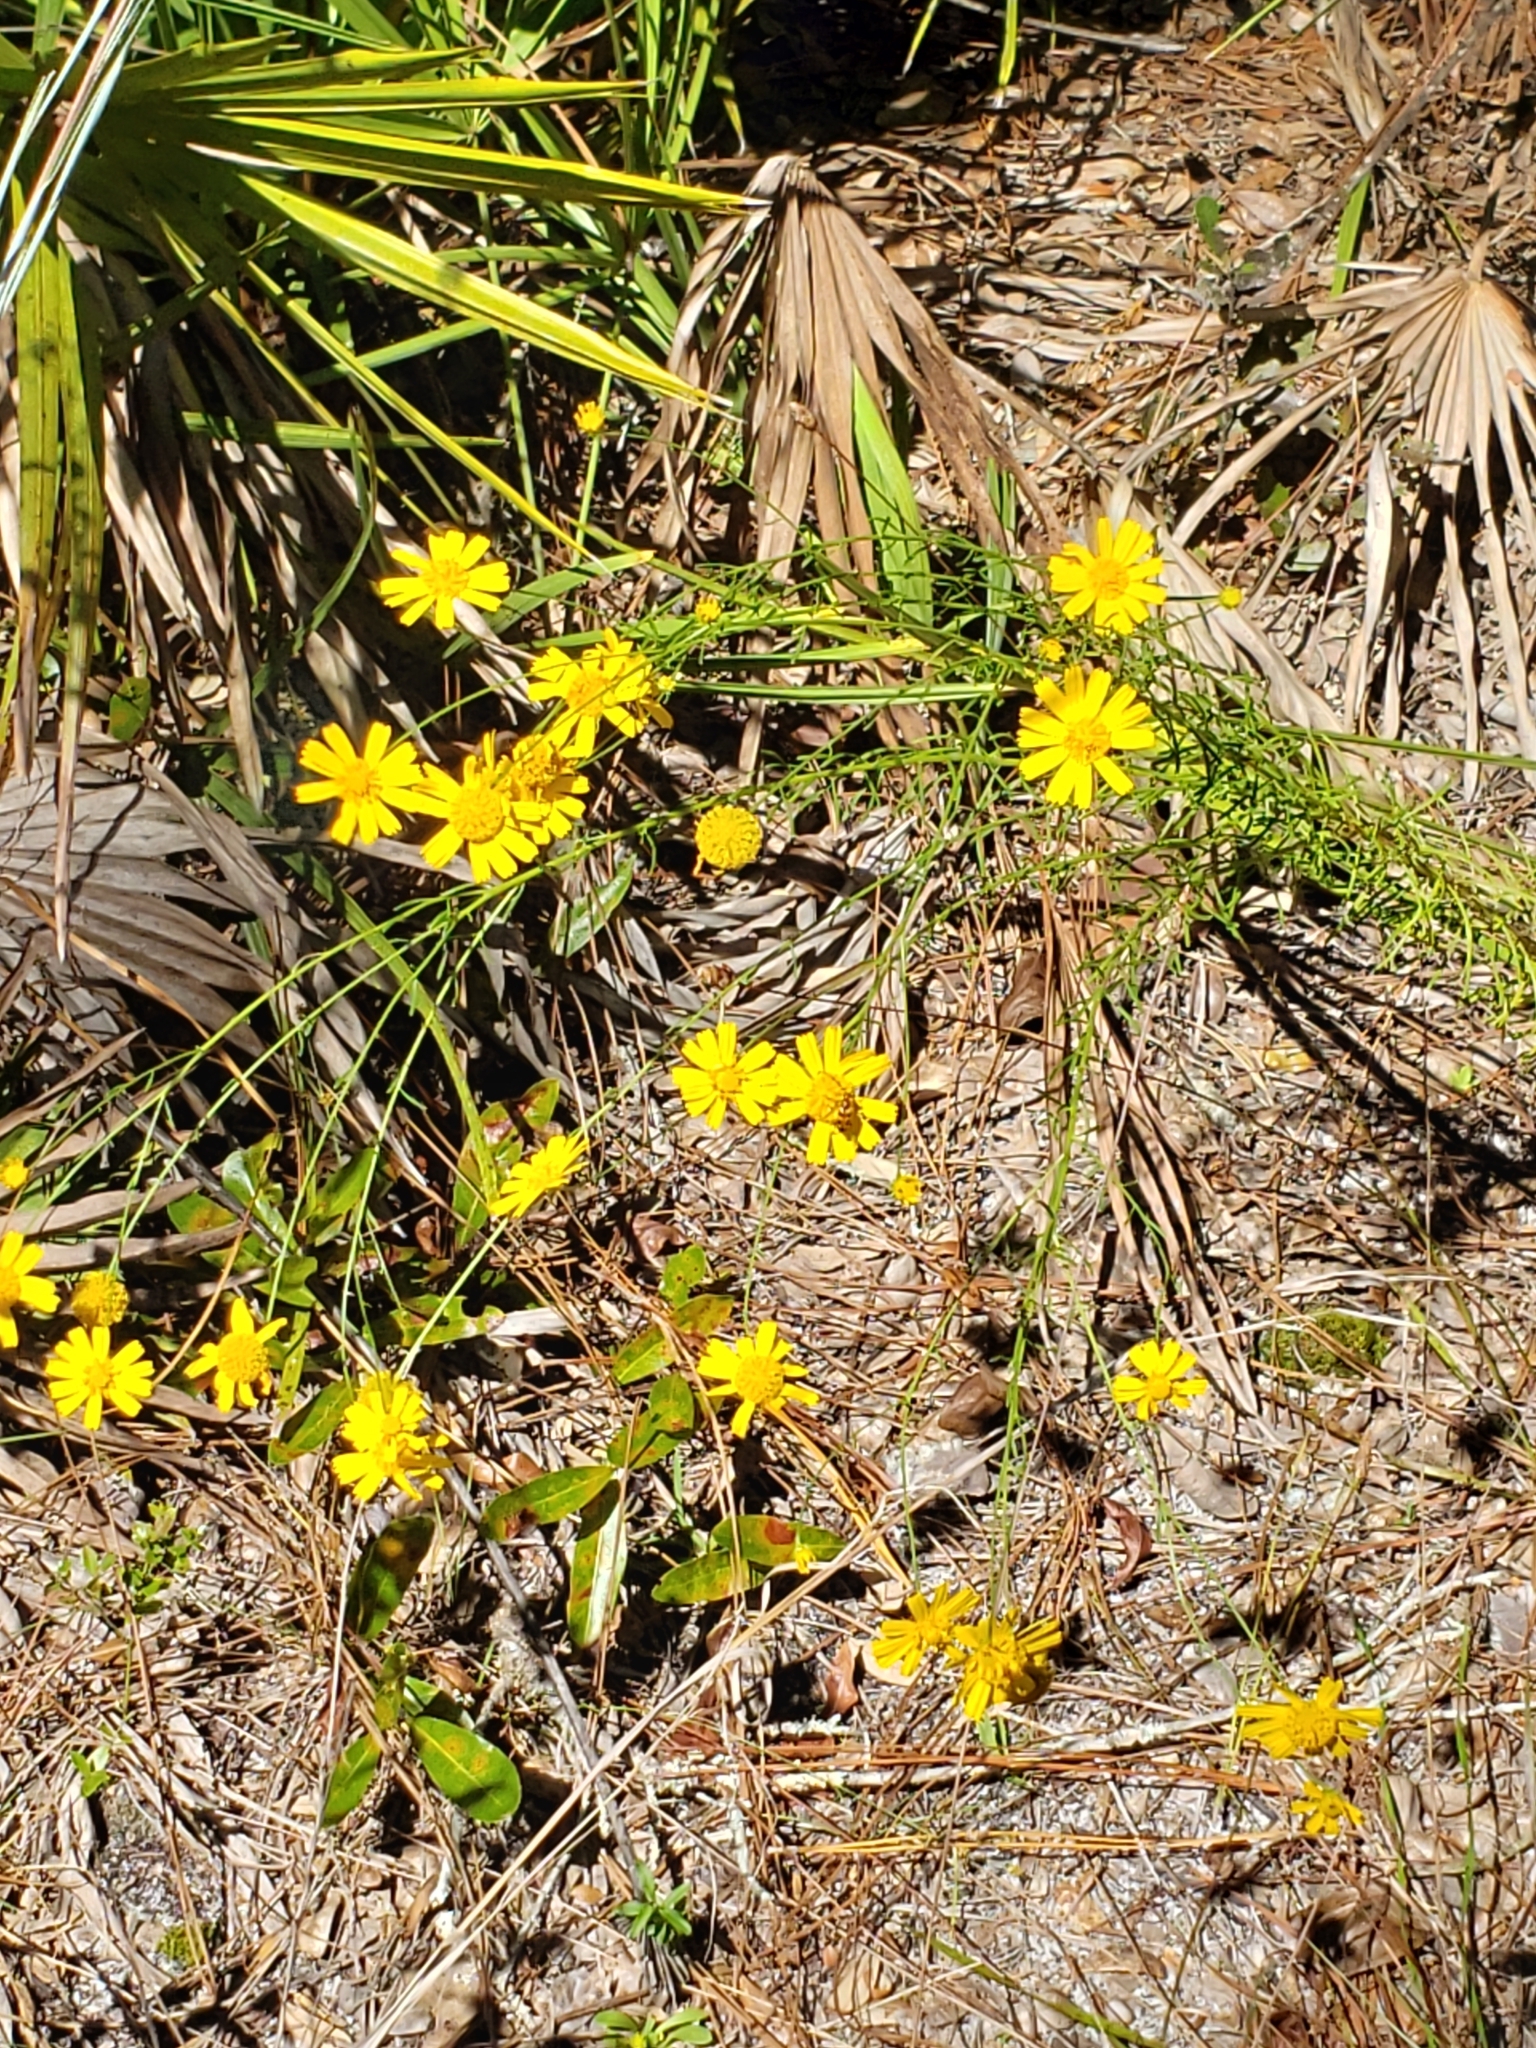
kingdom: Plantae
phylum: Tracheophyta
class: Magnoliopsida
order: Asterales
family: Asteraceae
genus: Balduina
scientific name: Balduina angustifolia
